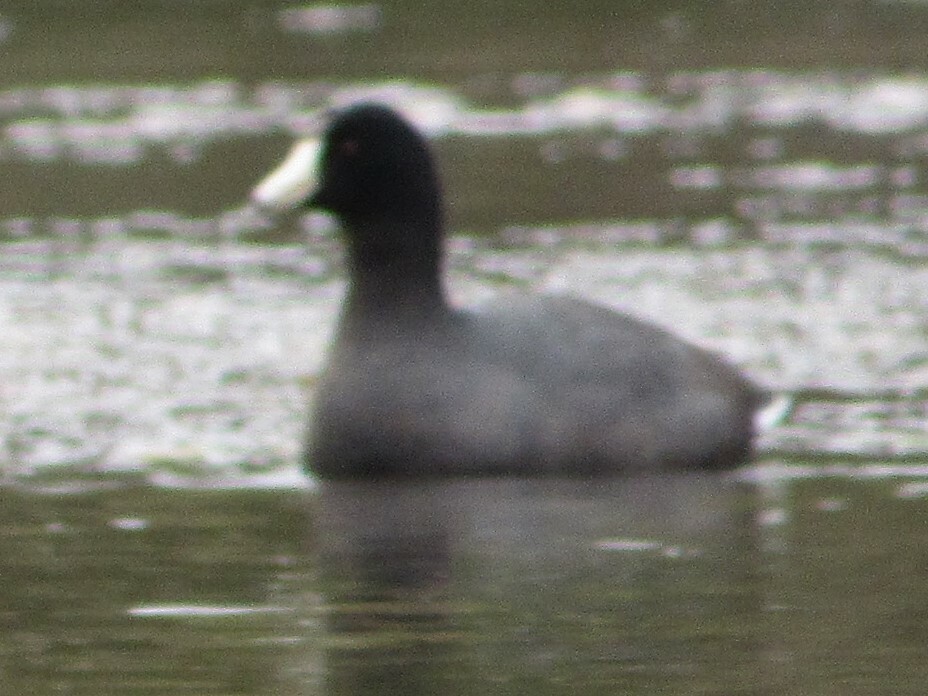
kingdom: Animalia
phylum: Chordata
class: Aves
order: Gruiformes
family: Rallidae
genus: Fulica
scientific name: Fulica americana
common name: American coot
